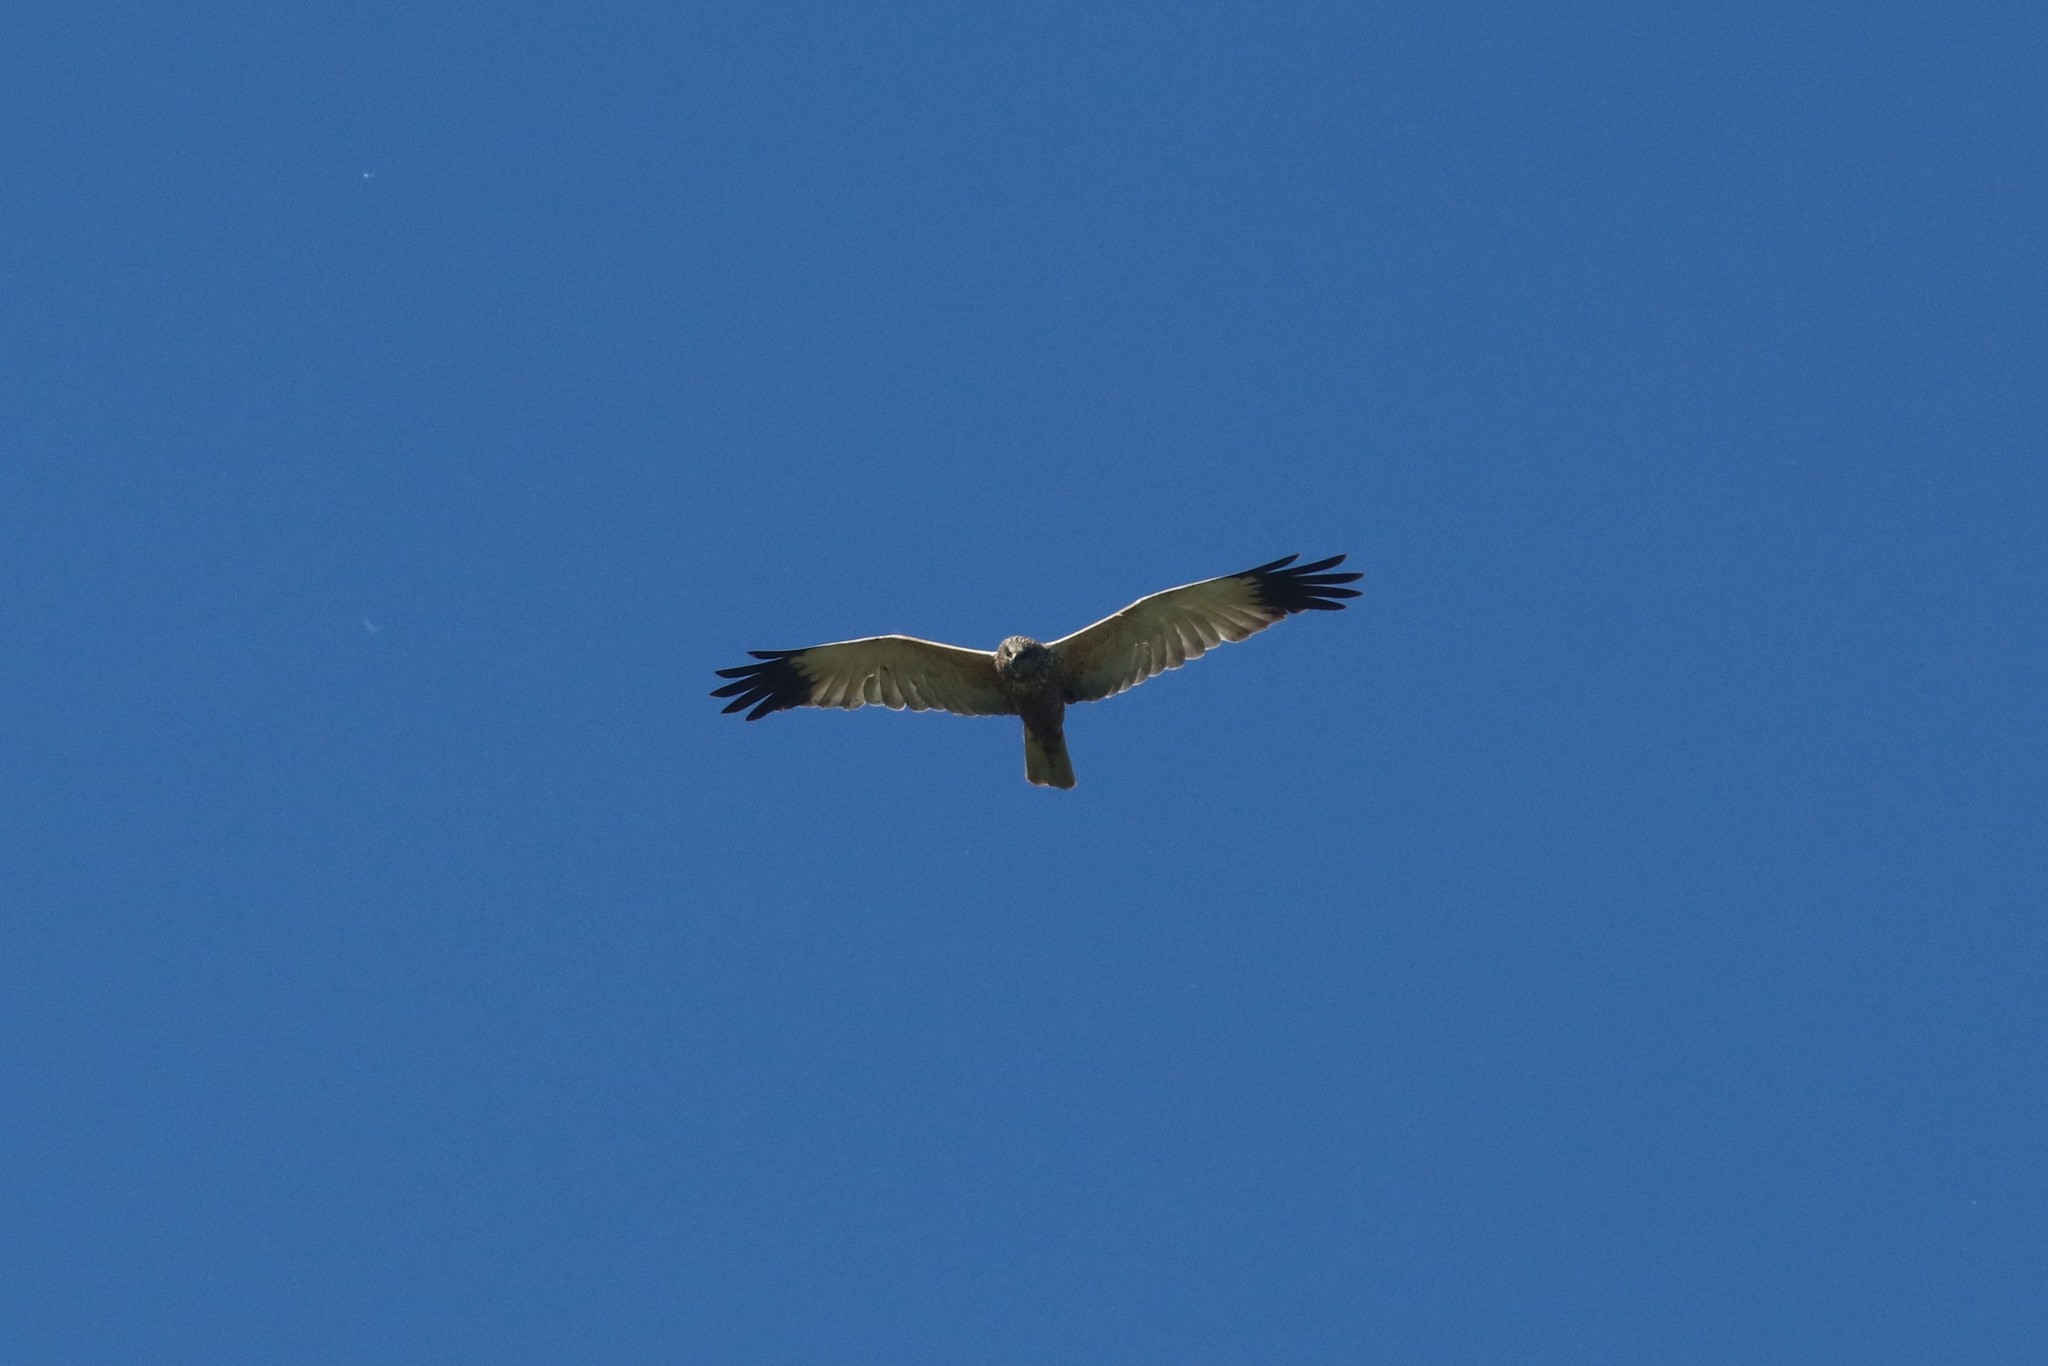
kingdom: Animalia
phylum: Chordata
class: Aves
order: Accipitriformes
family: Accipitridae
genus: Circus
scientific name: Circus aeruginosus
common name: Western marsh harrier
